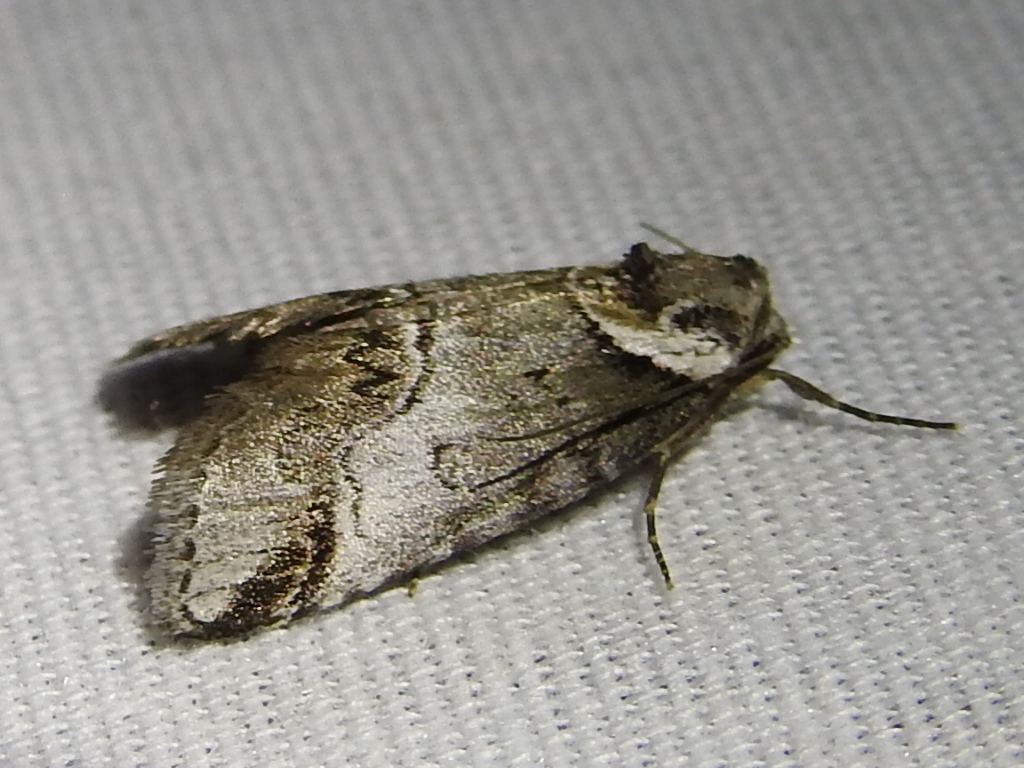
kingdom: Animalia
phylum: Arthropoda
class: Insecta
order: Lepidoptera
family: Nolidae
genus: Baileya
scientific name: Baileya australis
